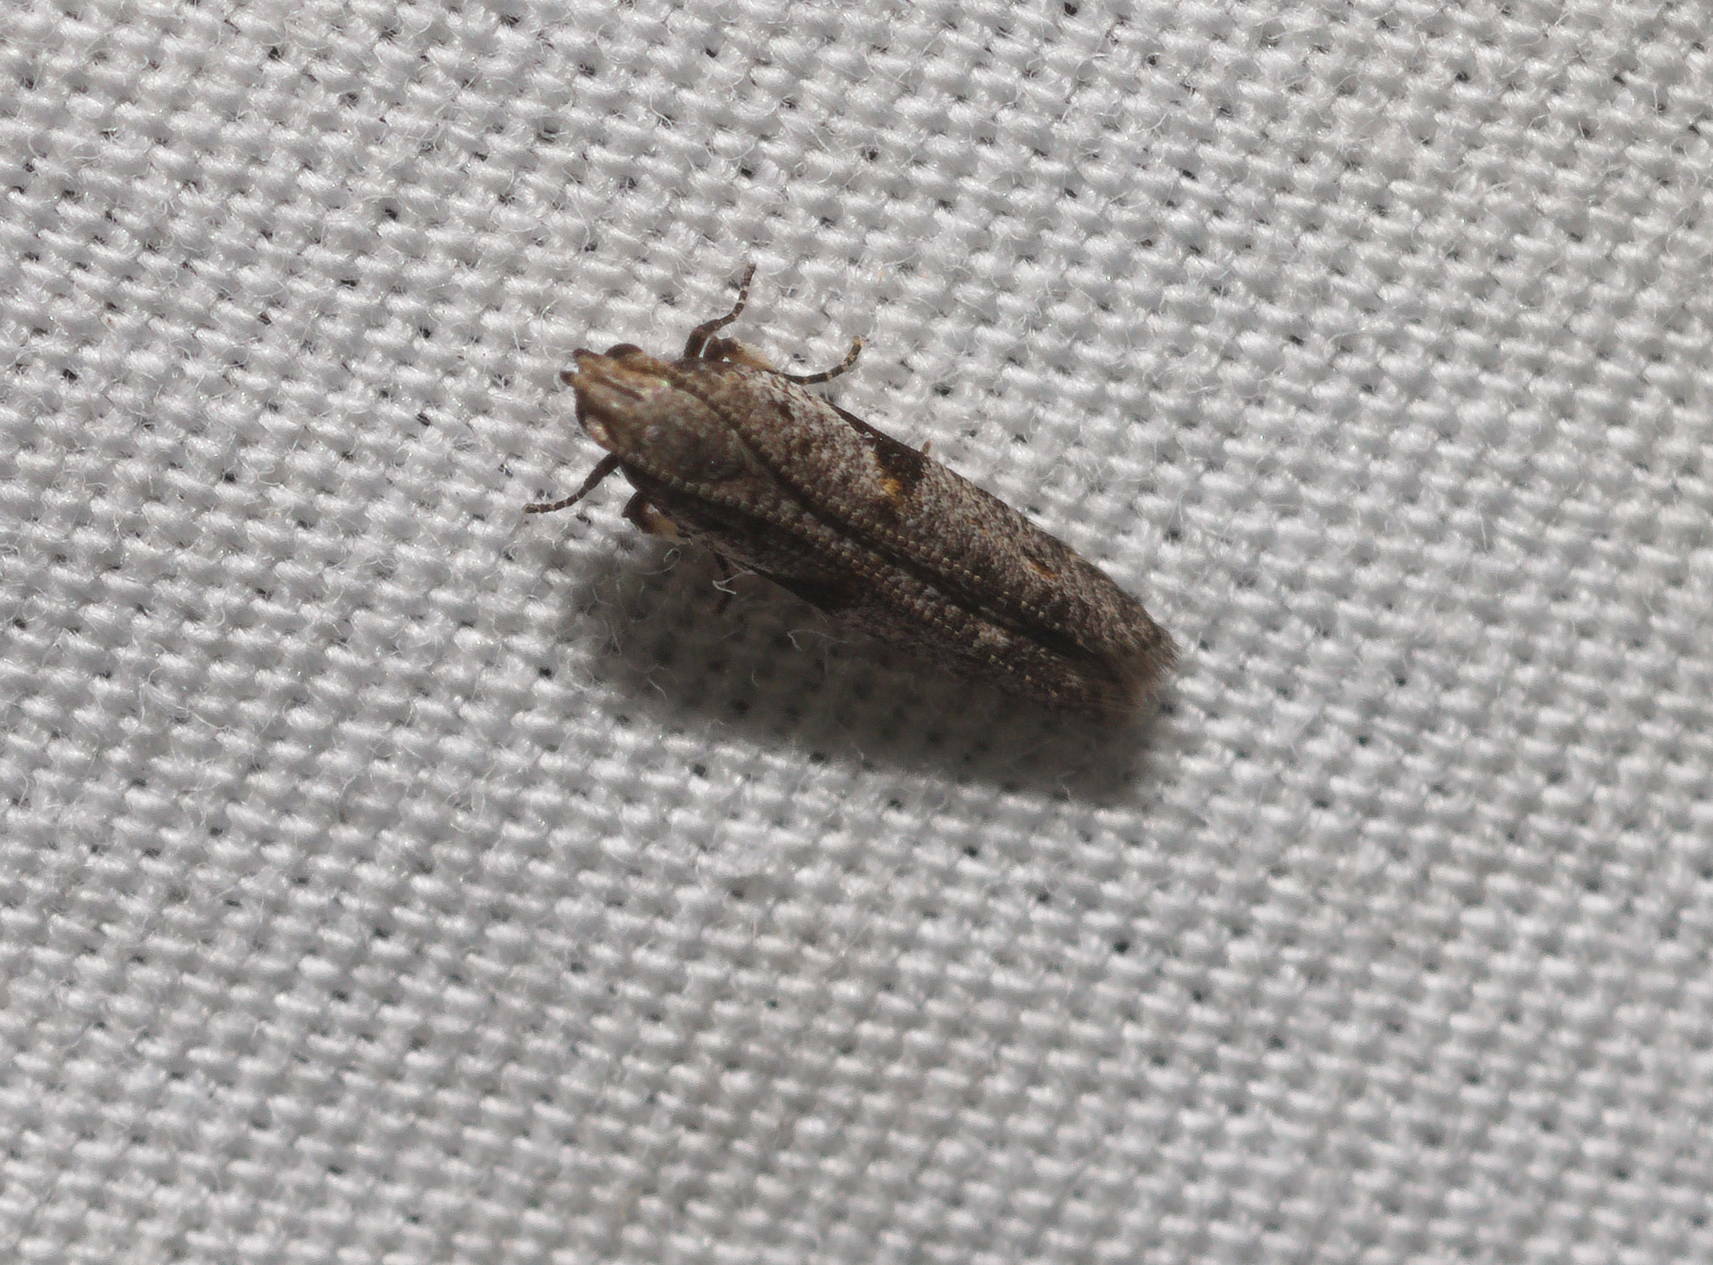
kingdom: Animalia
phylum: Arthropoda
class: Insecta
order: Lepidoptera
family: Gelechiidae
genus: Merimnetria
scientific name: Merimnetria elegantior
